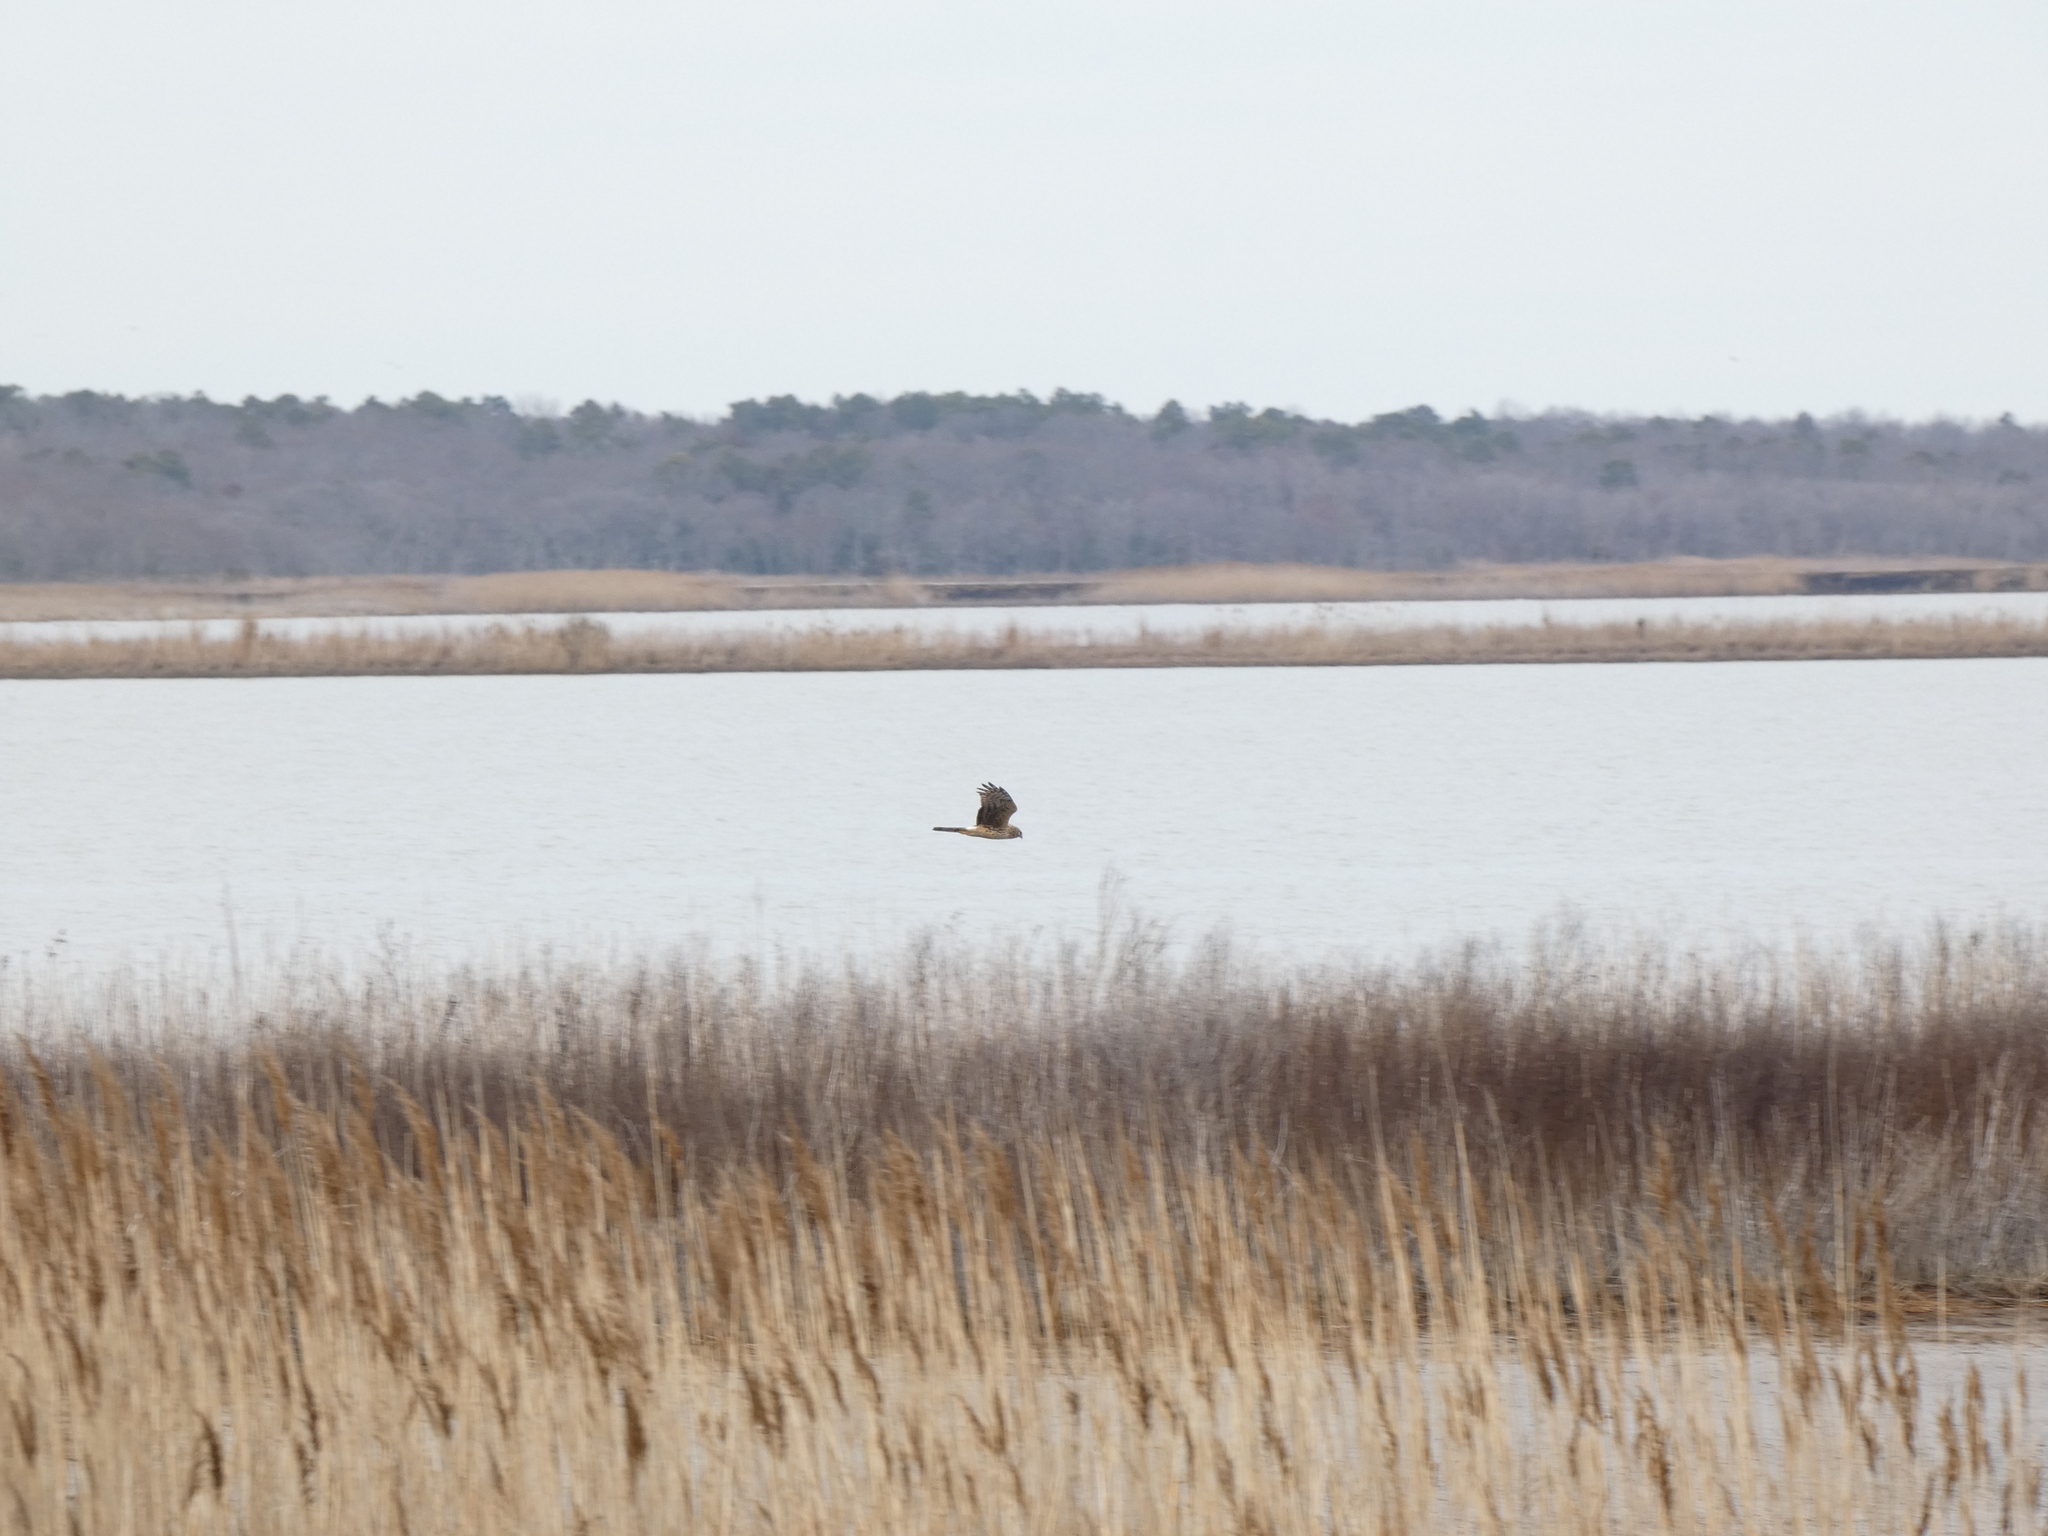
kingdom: Animalia
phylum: Chordata
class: Aves
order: Accipitriformes
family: Accipitridae
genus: Circus
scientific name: Circus cyaneus
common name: Hen harrier
